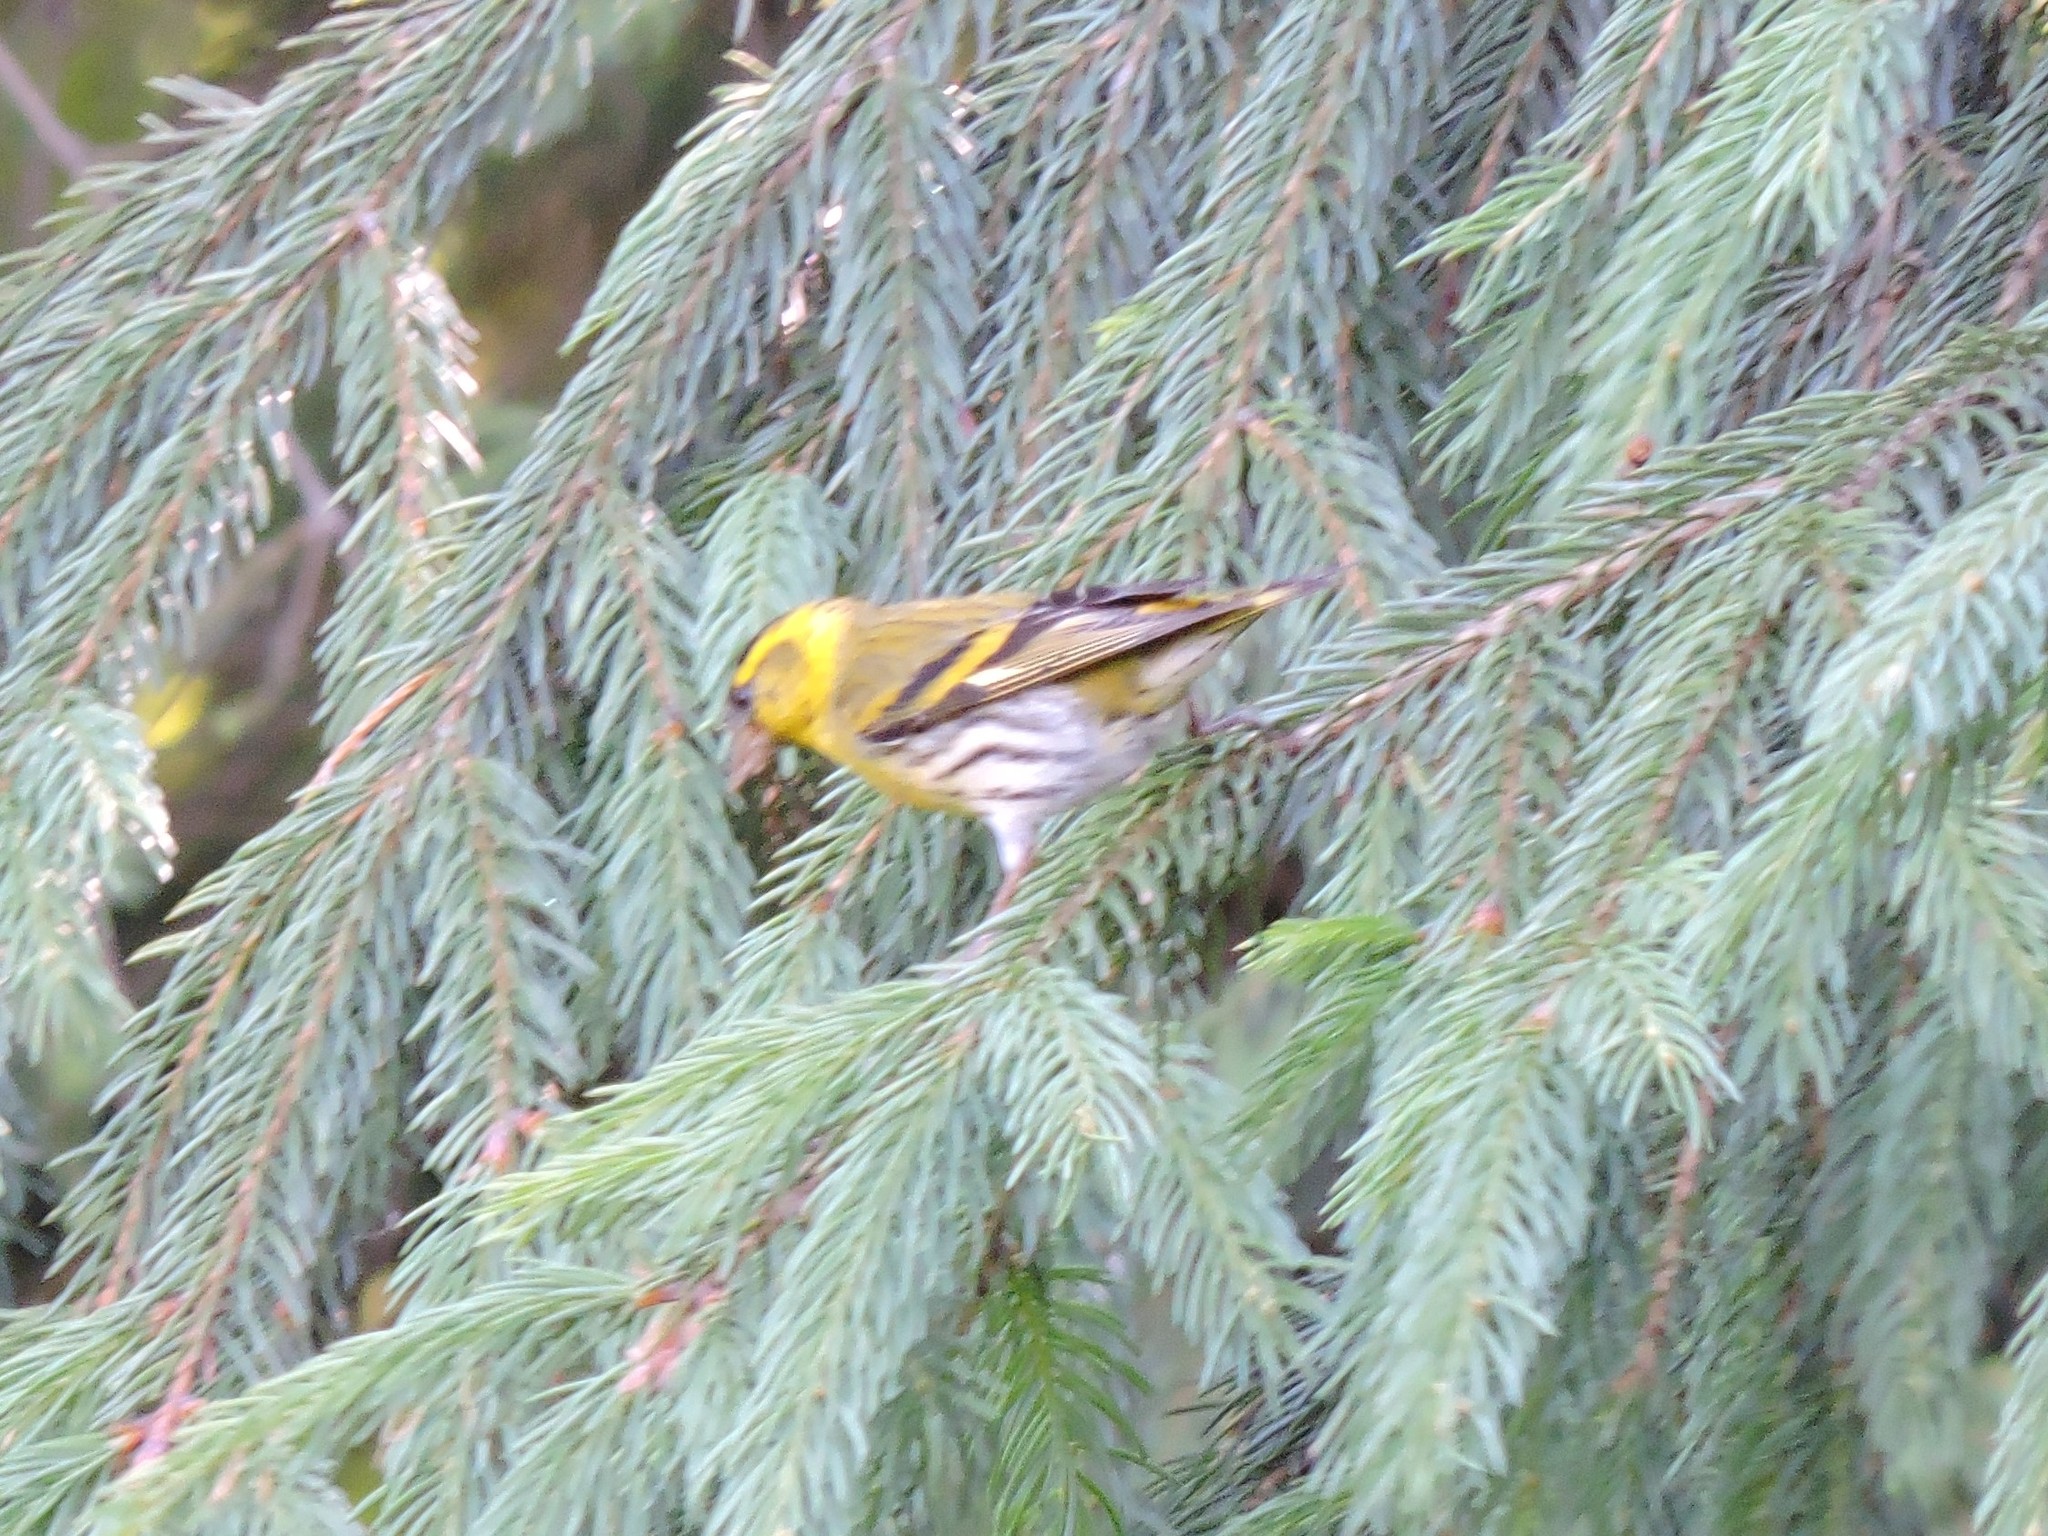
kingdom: Animalia
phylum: Chordata
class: Aves
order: Passeriformes
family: Fringillidae
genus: Spinus
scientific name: Spinus spinus
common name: Eurasian siskin
